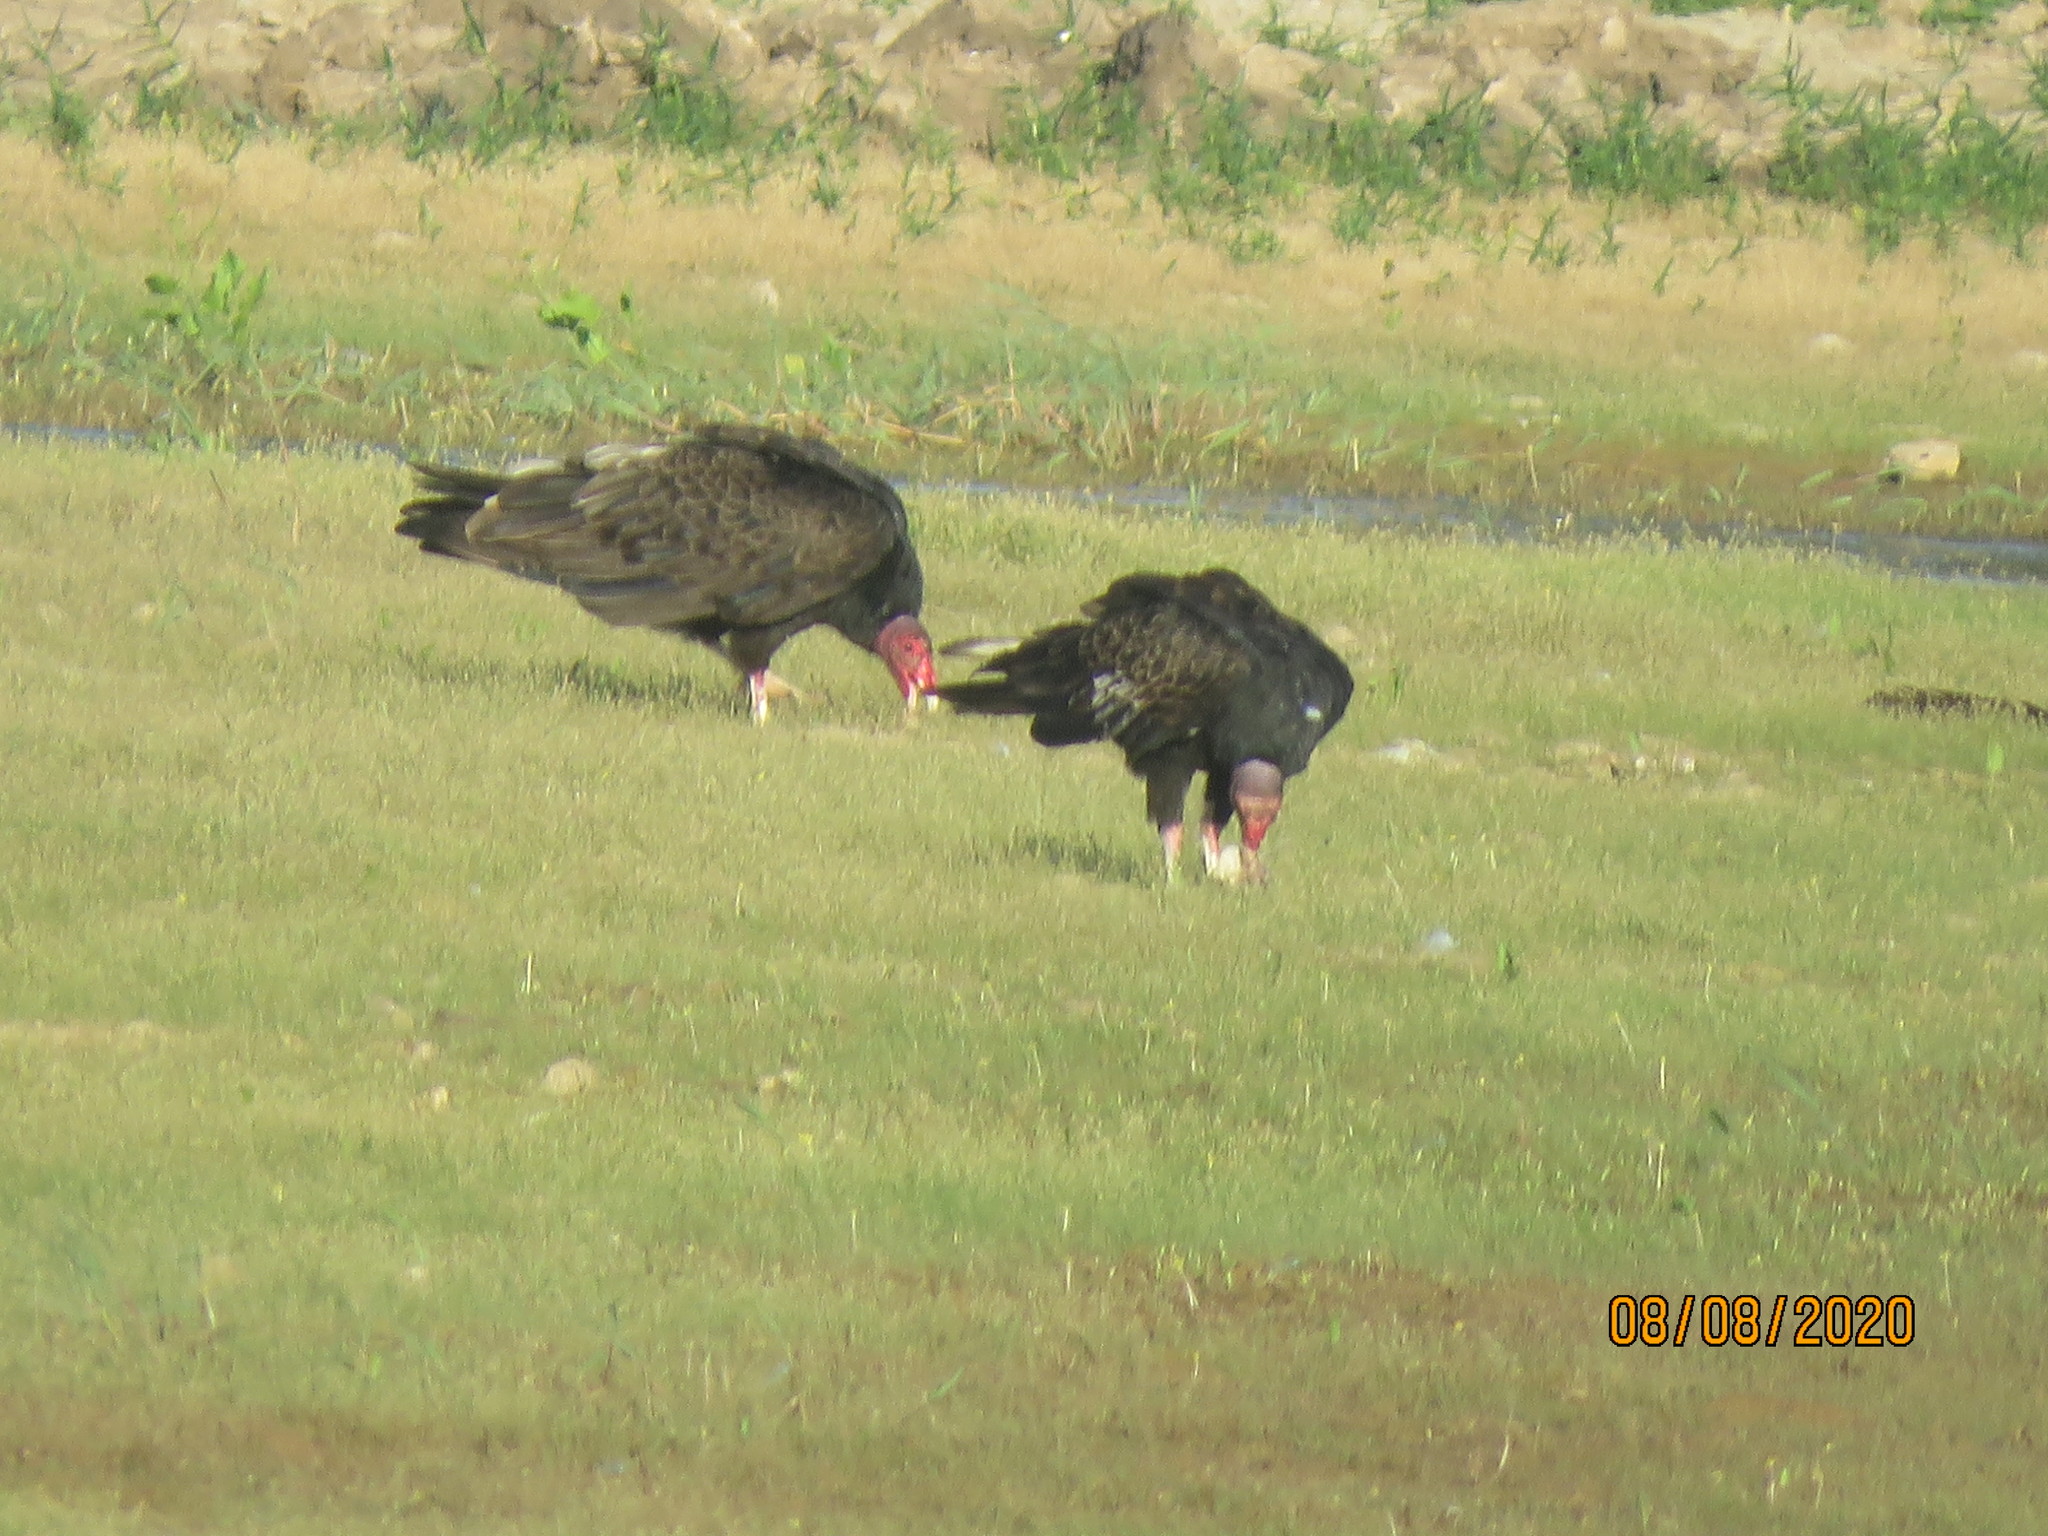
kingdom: Animalia
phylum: Chordata
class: Aves
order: Accipitriformes
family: Cathartidae
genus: Cathartes
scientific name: Cathartes aura
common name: Turkey vulture
